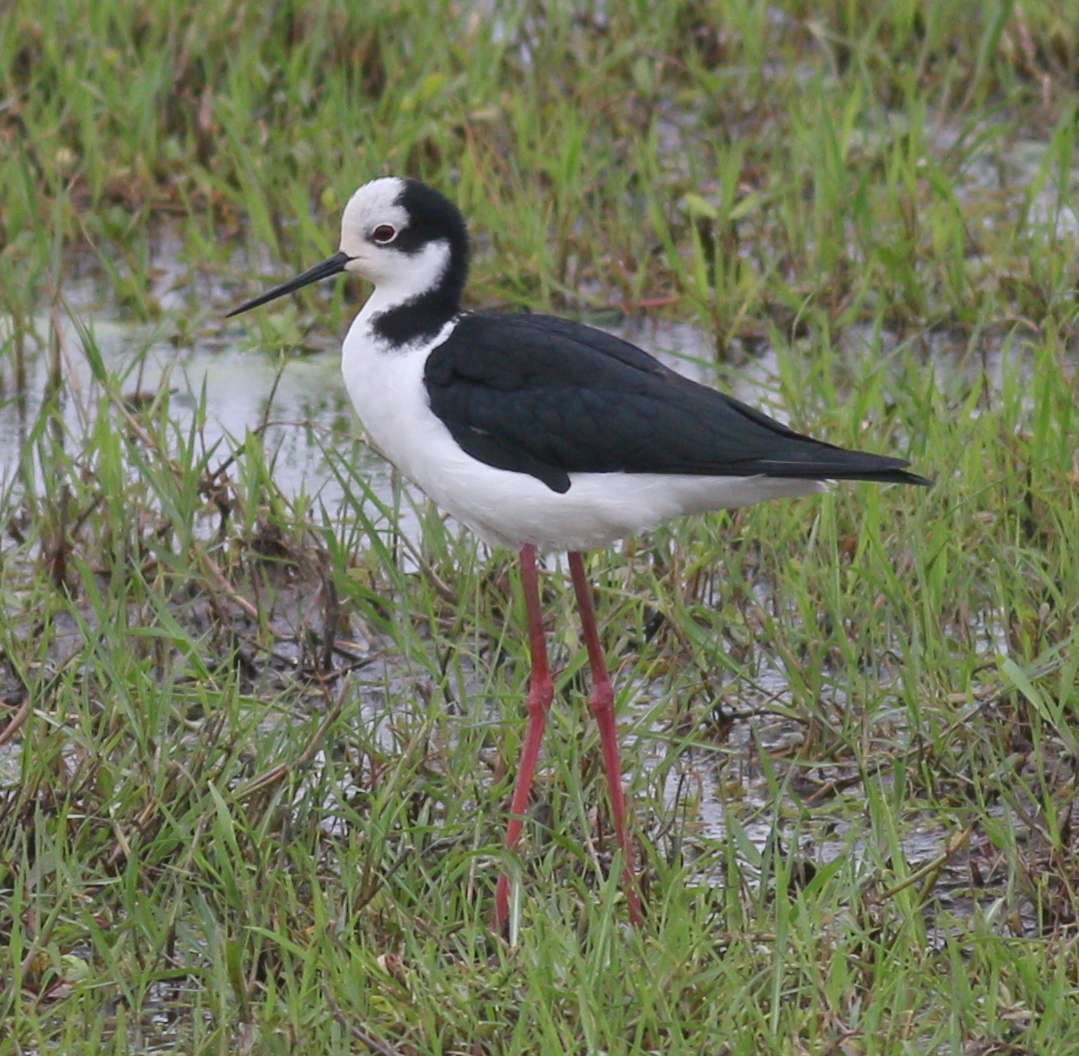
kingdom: Animalia
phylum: Chordata
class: Aves
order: Charadriiformes
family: Recurvirostridae
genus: Himantopus
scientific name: Himantopus mexicanus
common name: Black-necked stilt
